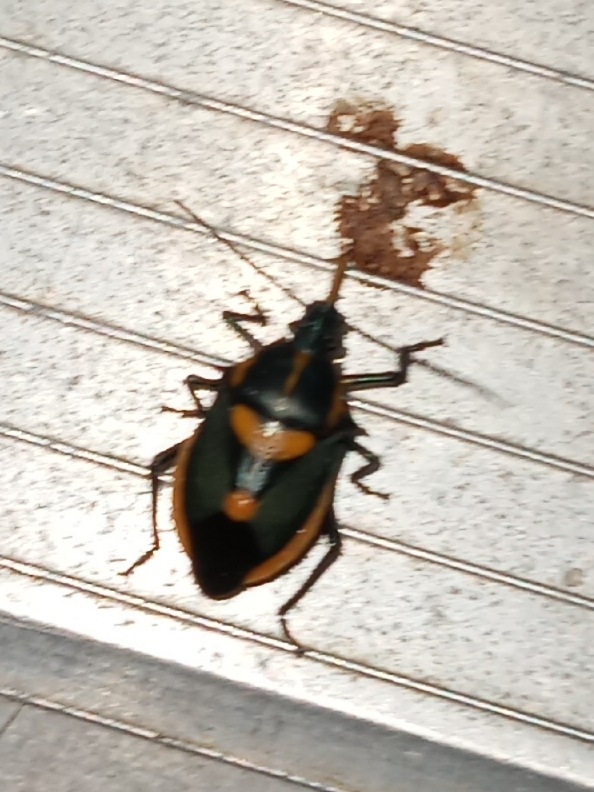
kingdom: Animalia
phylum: Arthropoda
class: Insecta
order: Hemiptera
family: Pentatomidae
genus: Euthyrhynchus
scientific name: Euthyrhynchus floridanus
